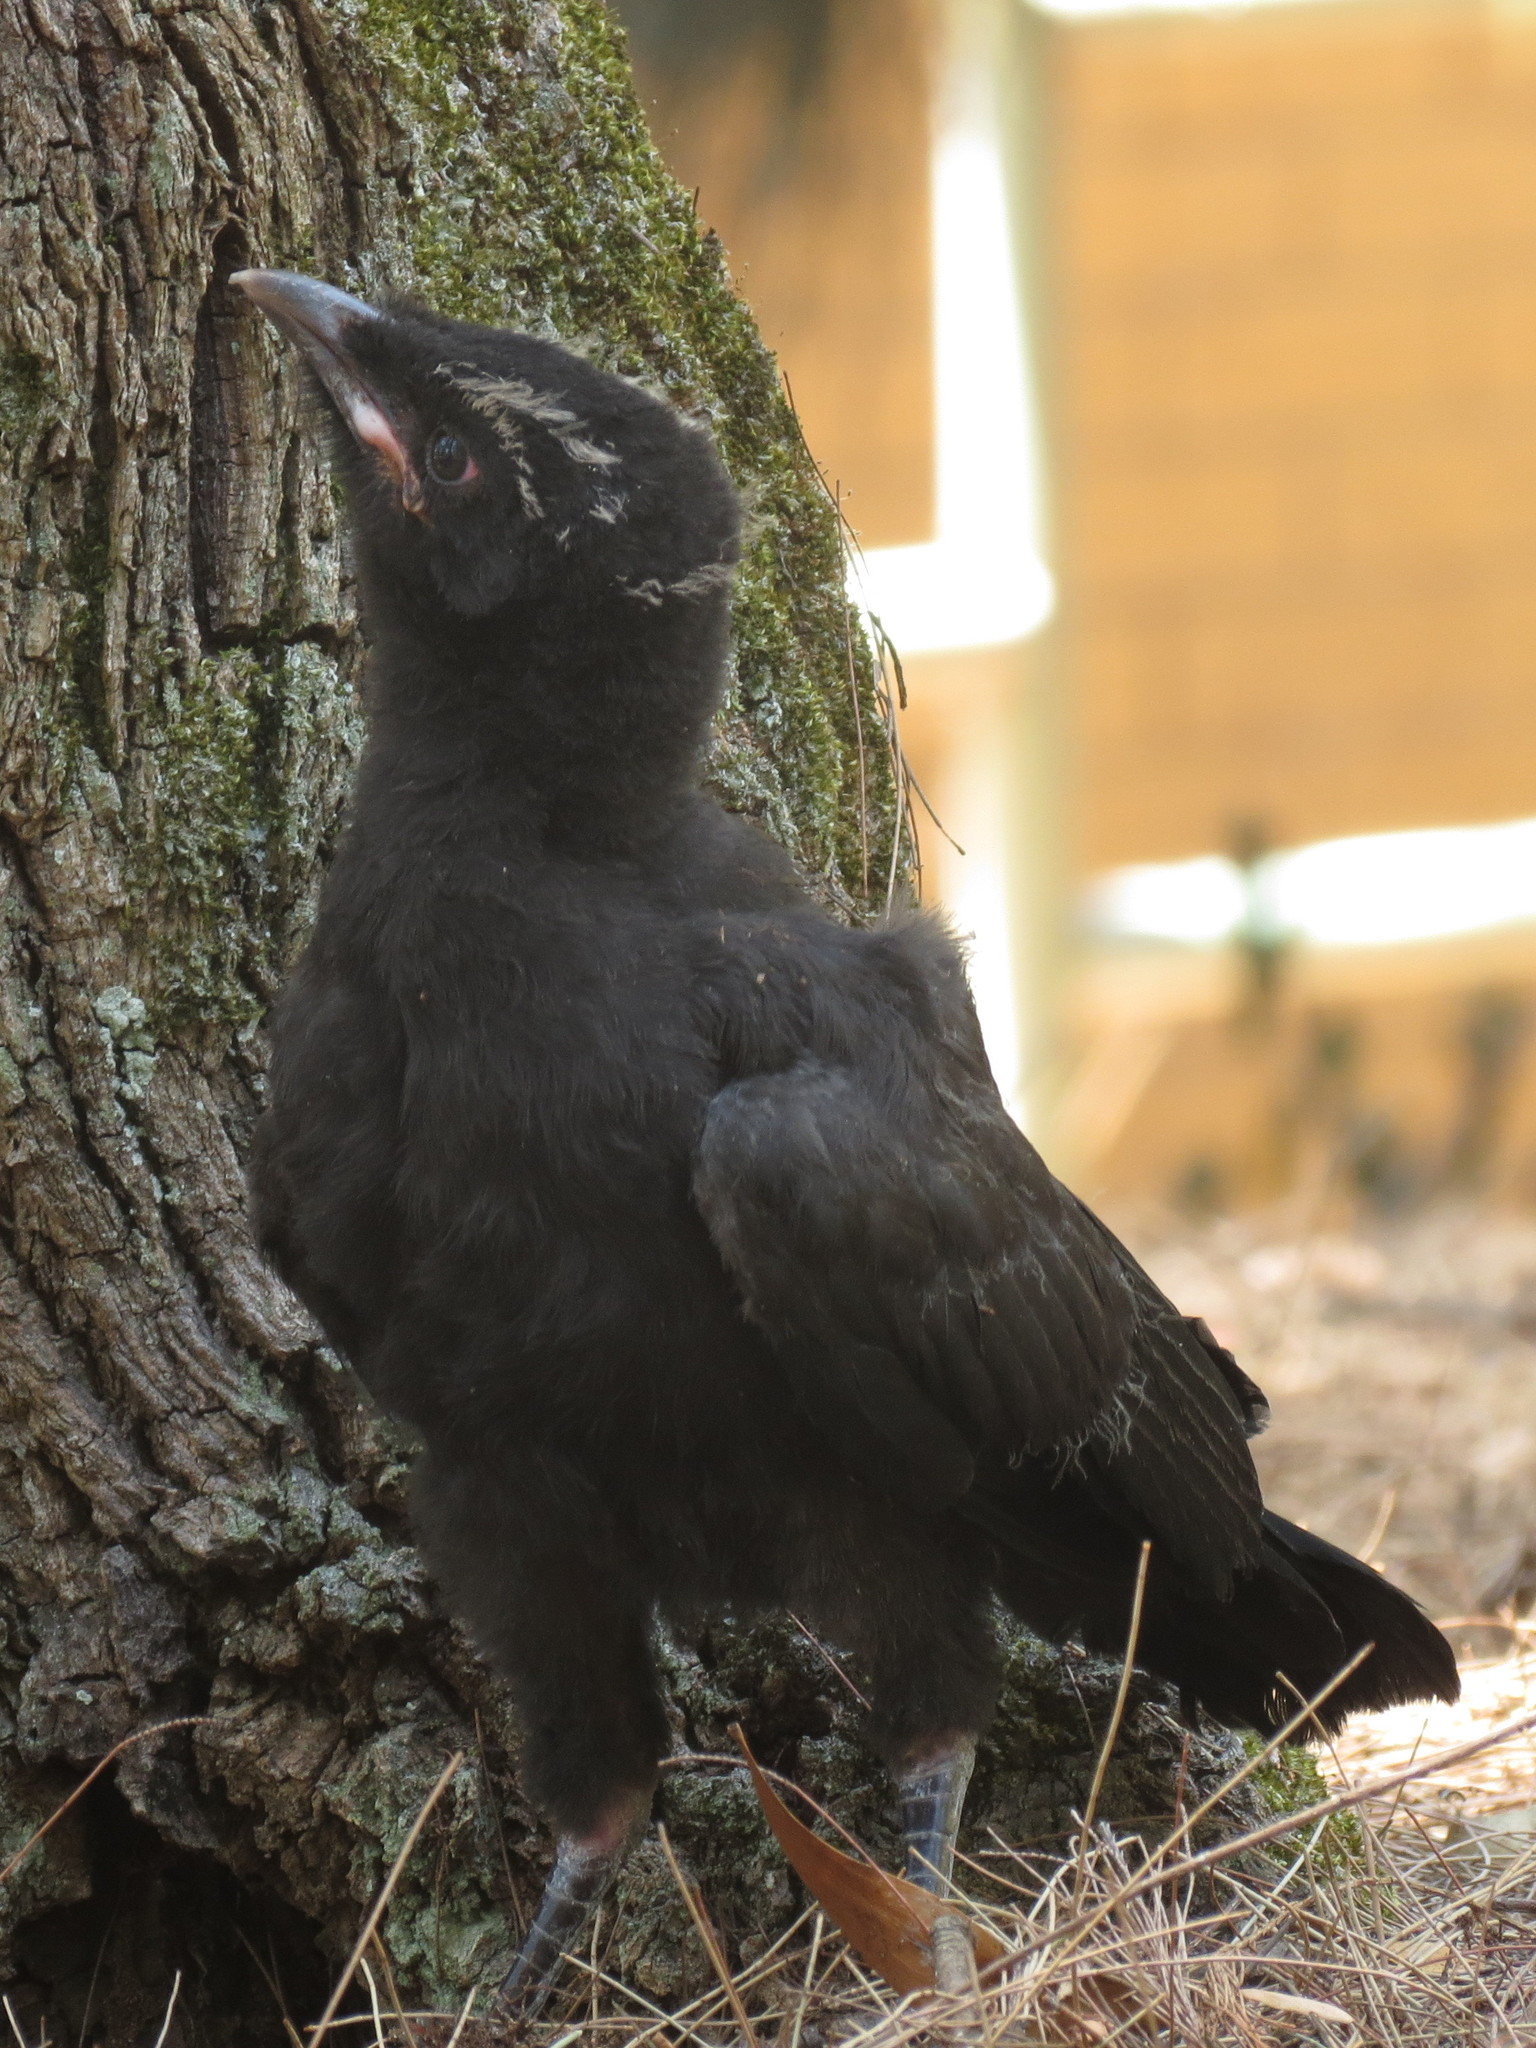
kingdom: Animalia
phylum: Chordata
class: Aves
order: Passeriformes
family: Corcoracidae
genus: Corcorax
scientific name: Corcorax melanoramphos
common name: White-winged chough
